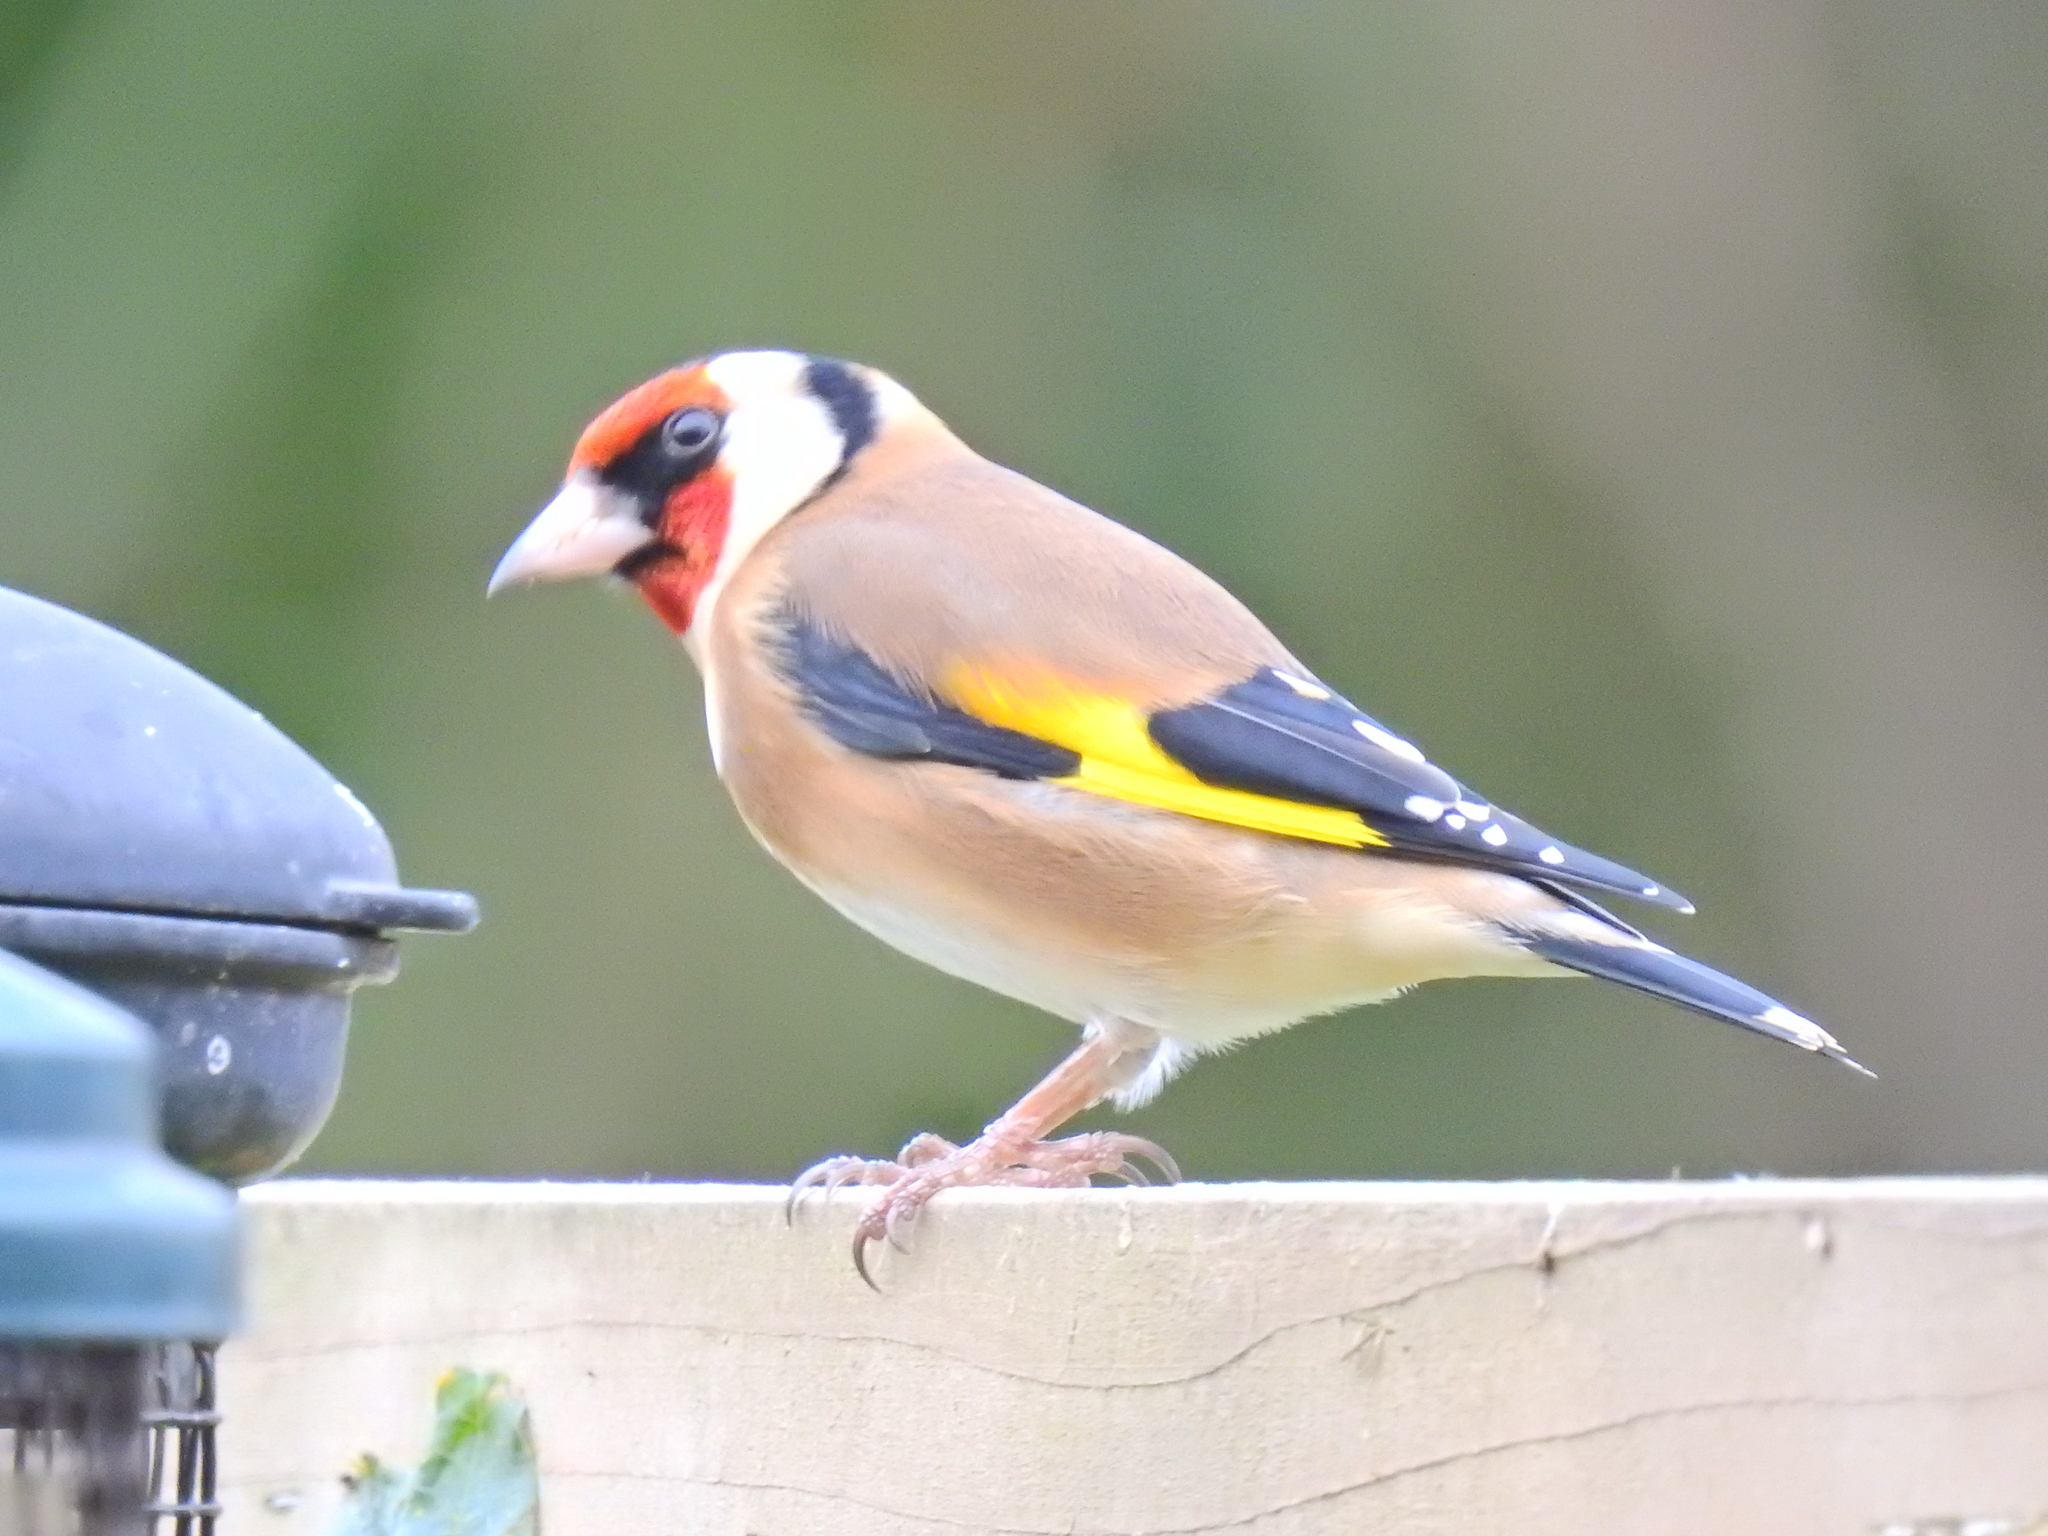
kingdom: Animalia
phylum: Chordata
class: Aves
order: Passeriformes
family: Fringillidae
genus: Carduelis
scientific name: Carduelis carduelis
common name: European goldfinch
